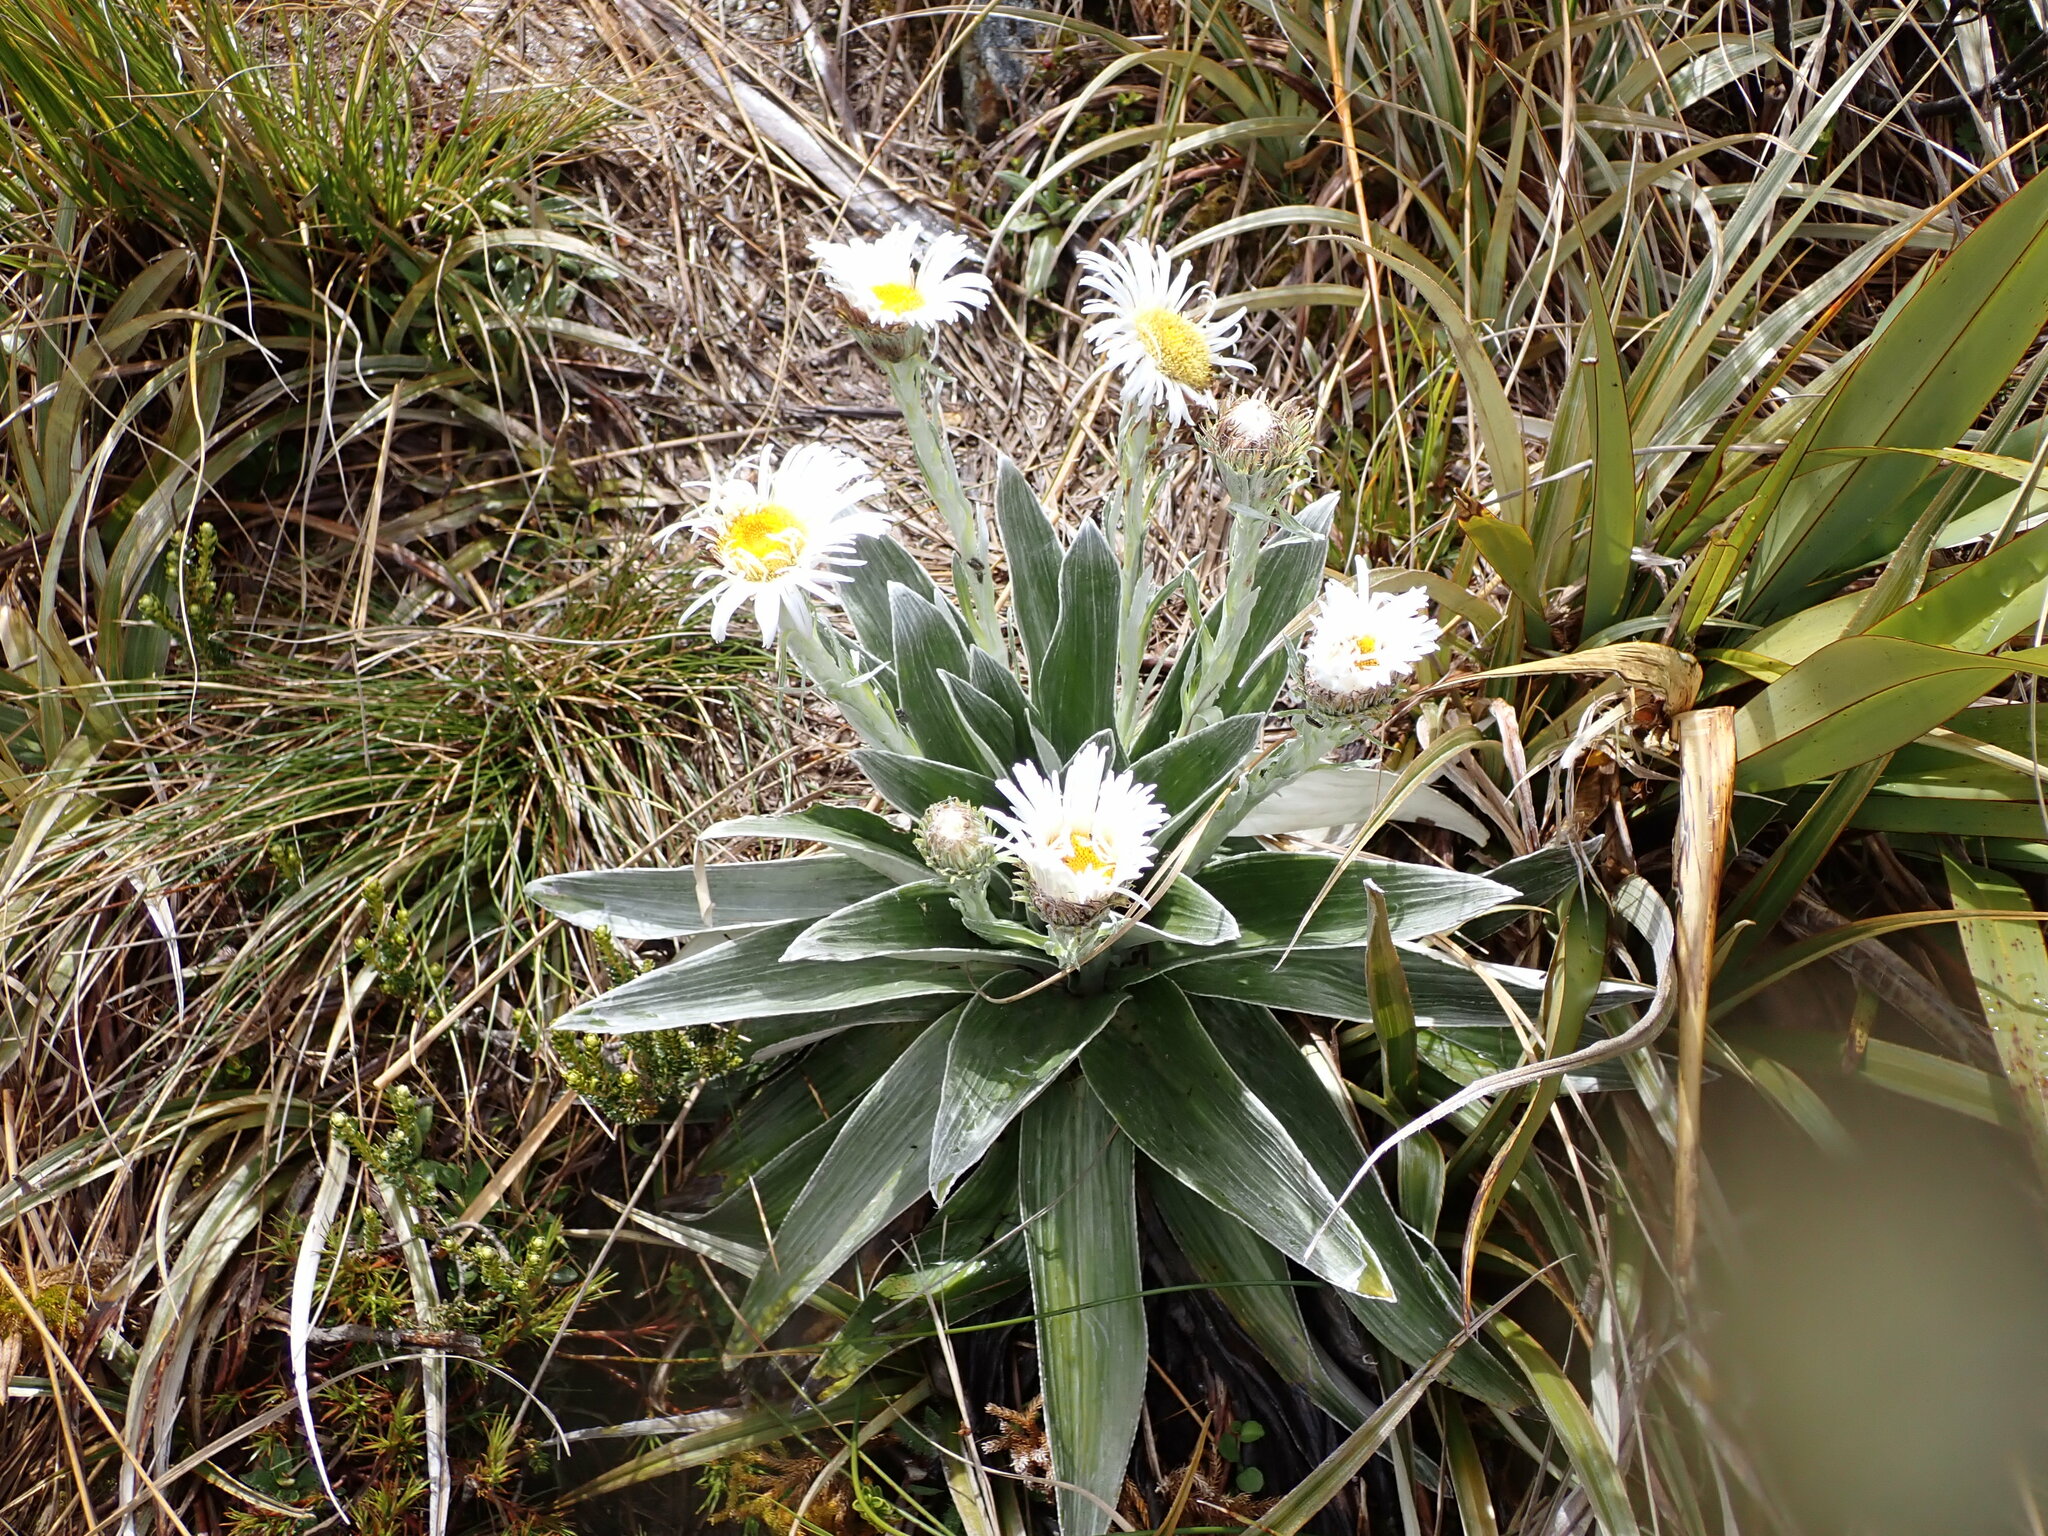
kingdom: Plantae
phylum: Tracheophyta
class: Magnoliopsida
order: Asterales
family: Asteraceae
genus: Celmisia
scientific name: Celmisia semicordata
